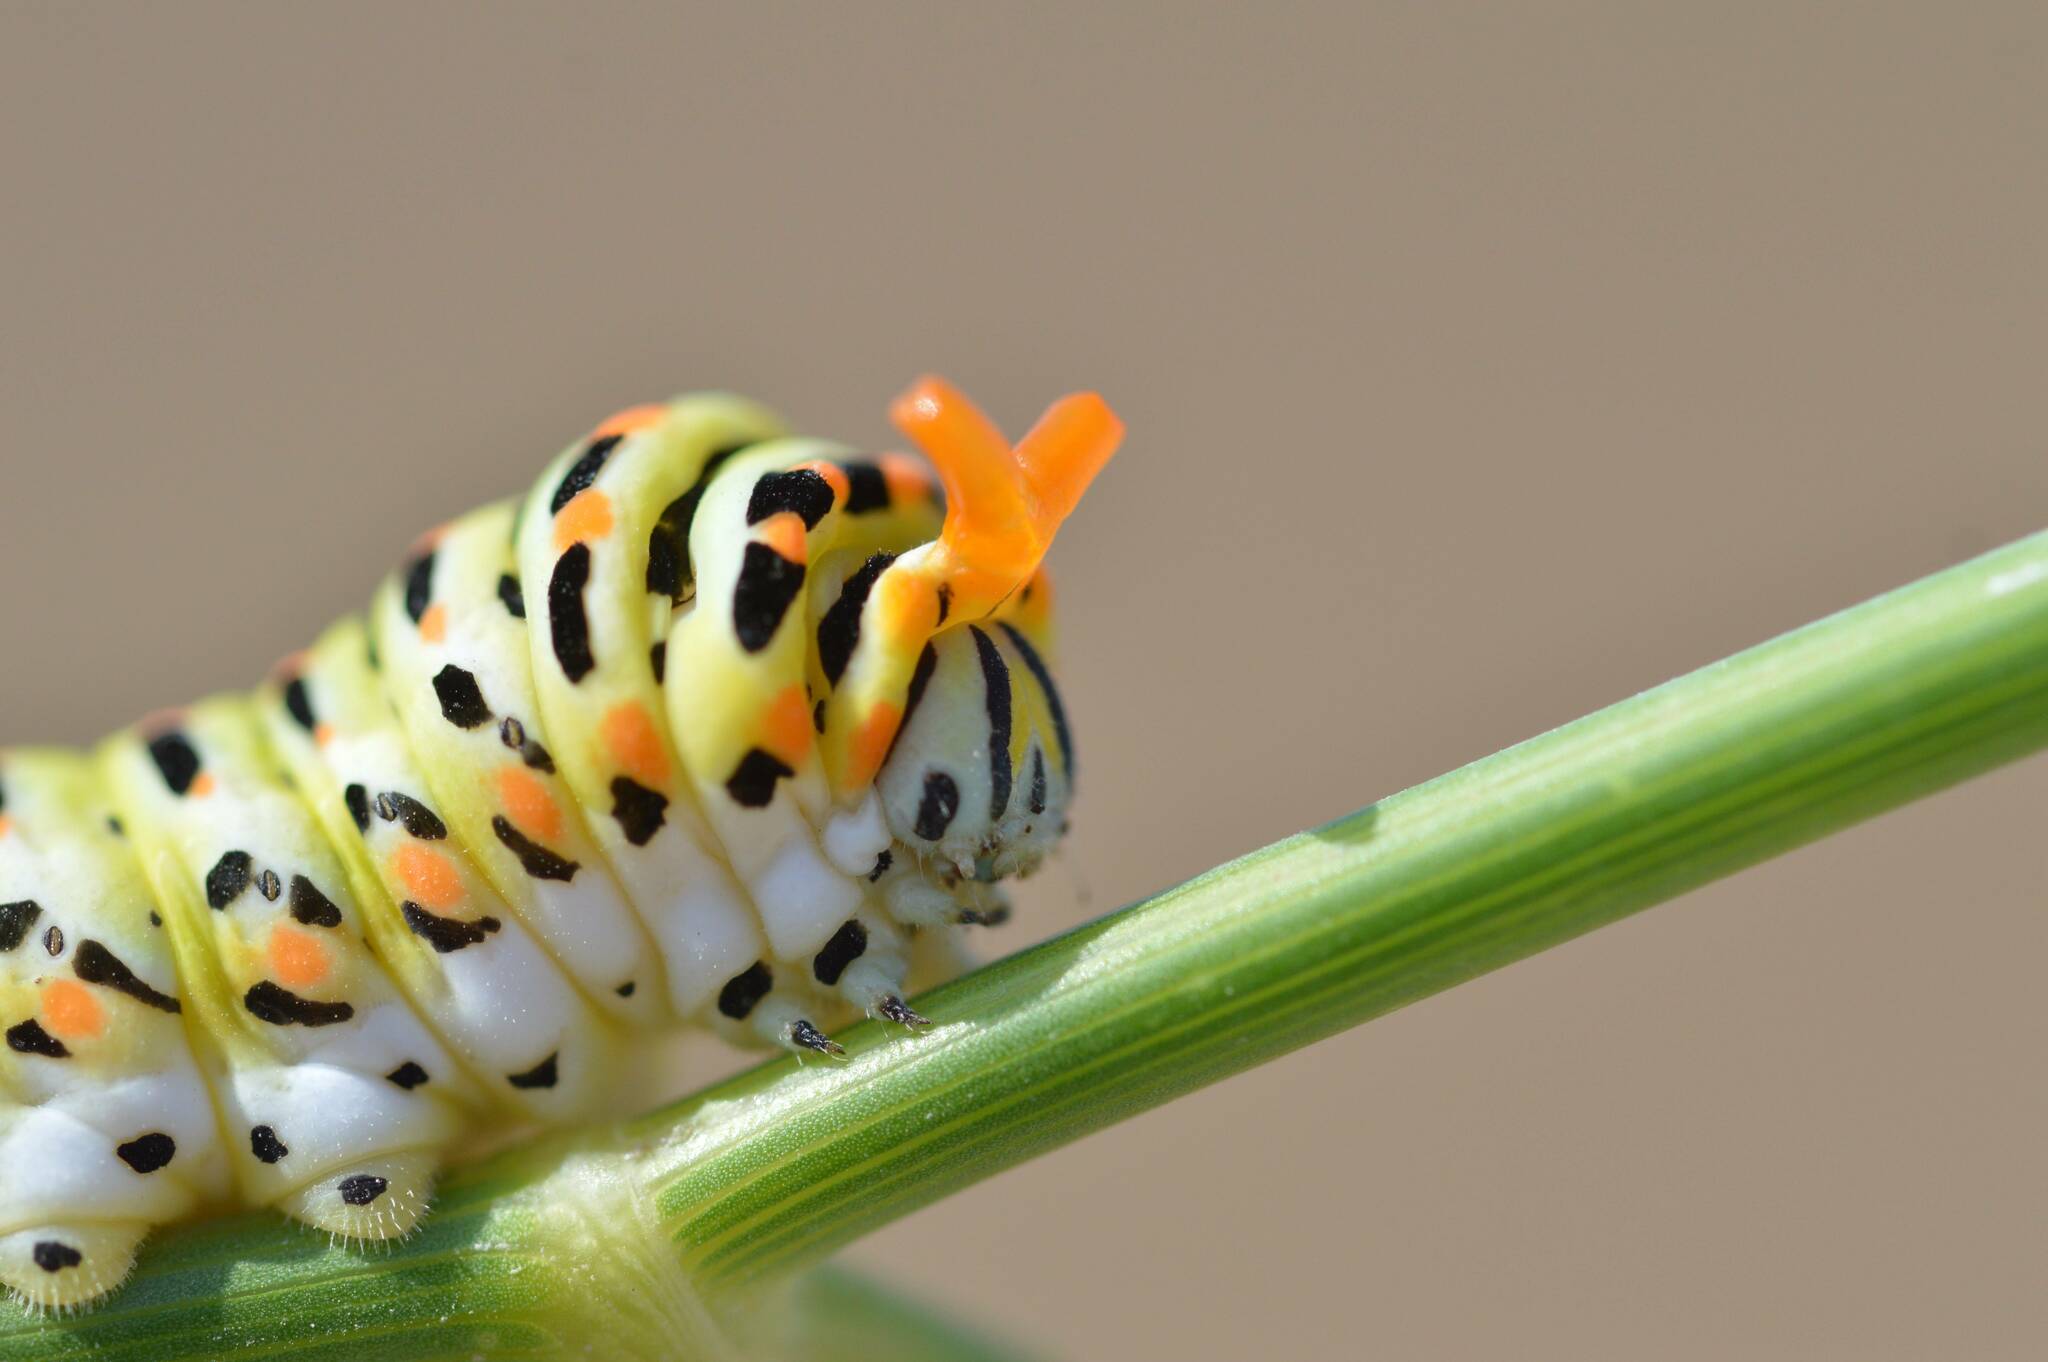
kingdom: Animalia
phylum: Arthropoda
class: Insecta
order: Lepidoptera
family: Papilionidae
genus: Papilio
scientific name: Papilio machaon
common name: Swallowtail
